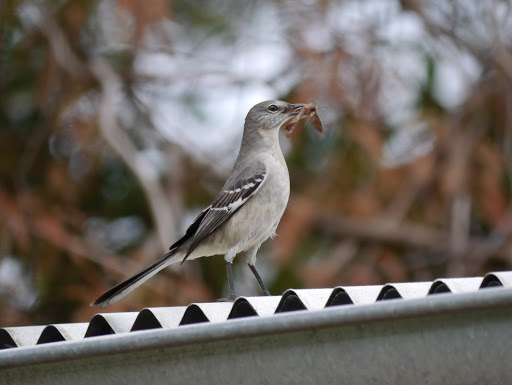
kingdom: Animalia
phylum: Chordata
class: Aves
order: Passeriformes
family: Mimidae
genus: Mimus
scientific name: Mimus polyglottos
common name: Northern mockingbird
